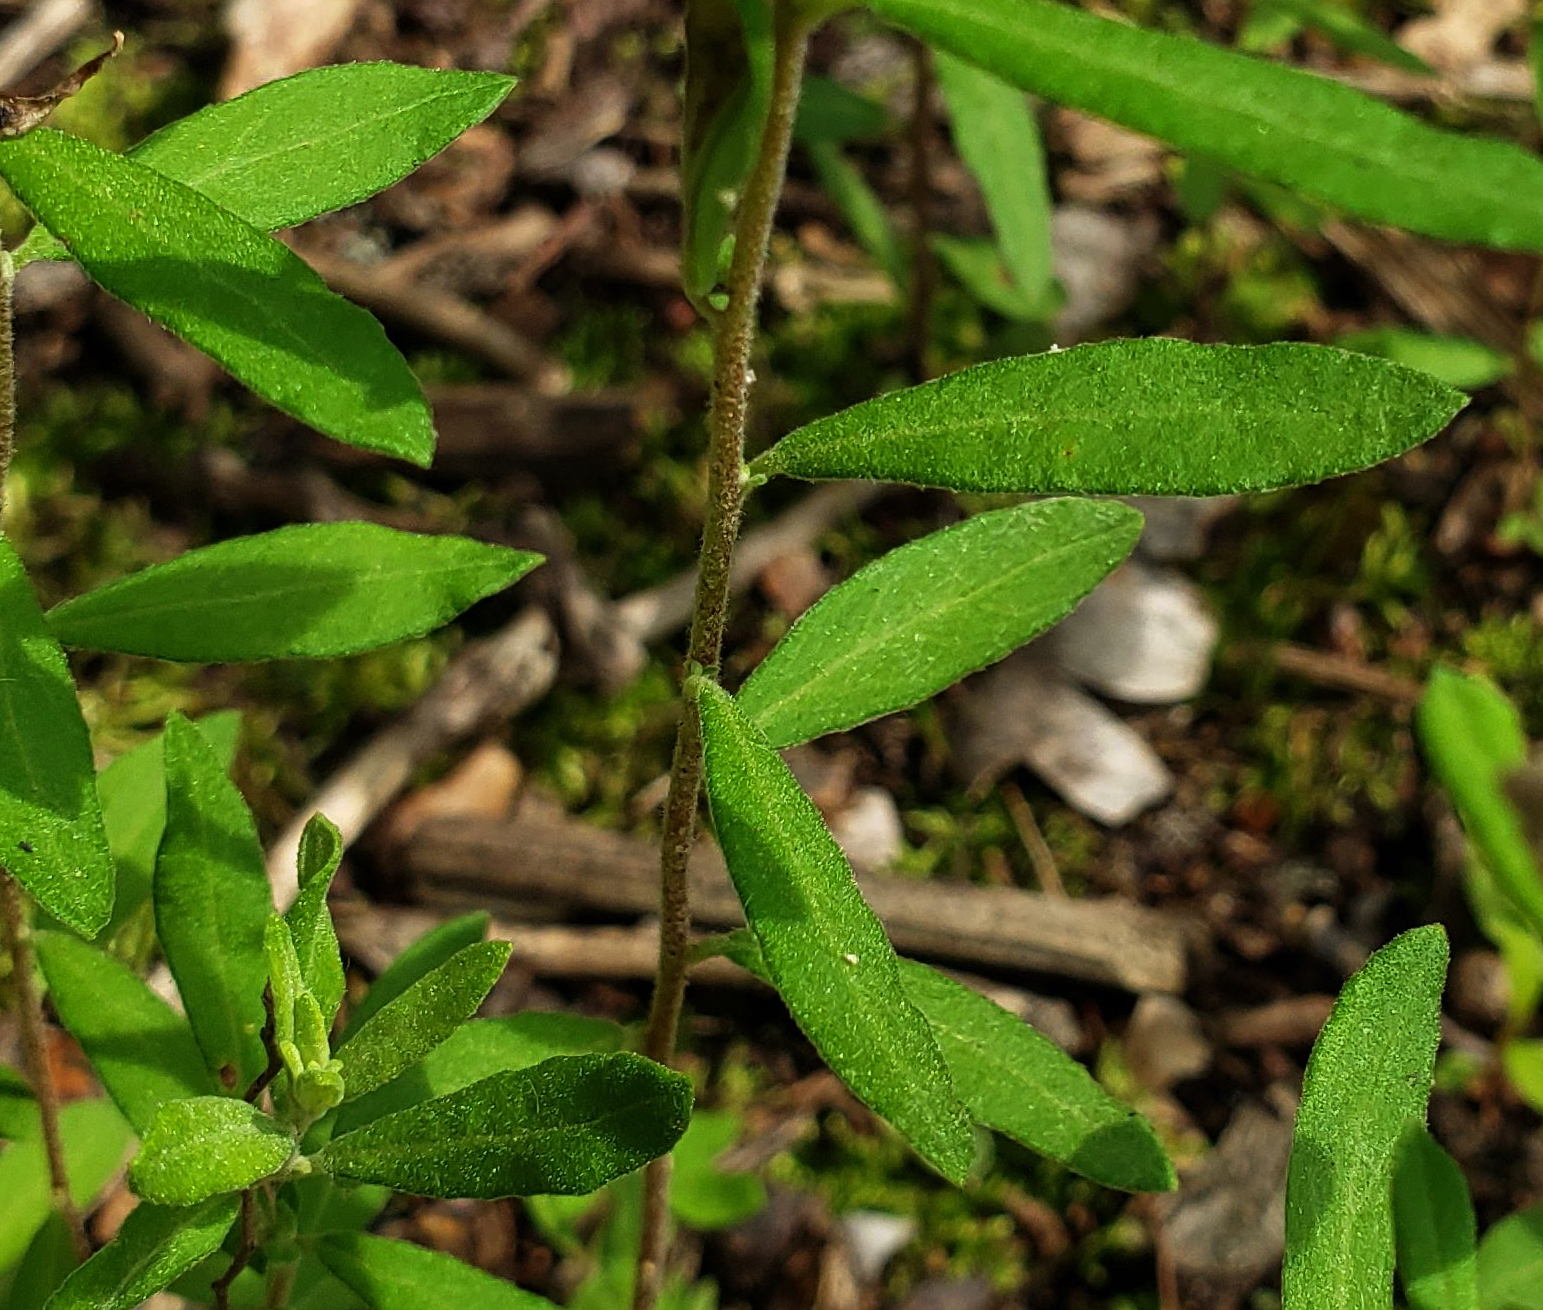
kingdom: Plantae
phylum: Tracheophyta
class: Magnoliopsida
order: Malvales
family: Cistaceae
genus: Crocanthemum
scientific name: Crocanthemum bicknellii
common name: Hoary frostweed
